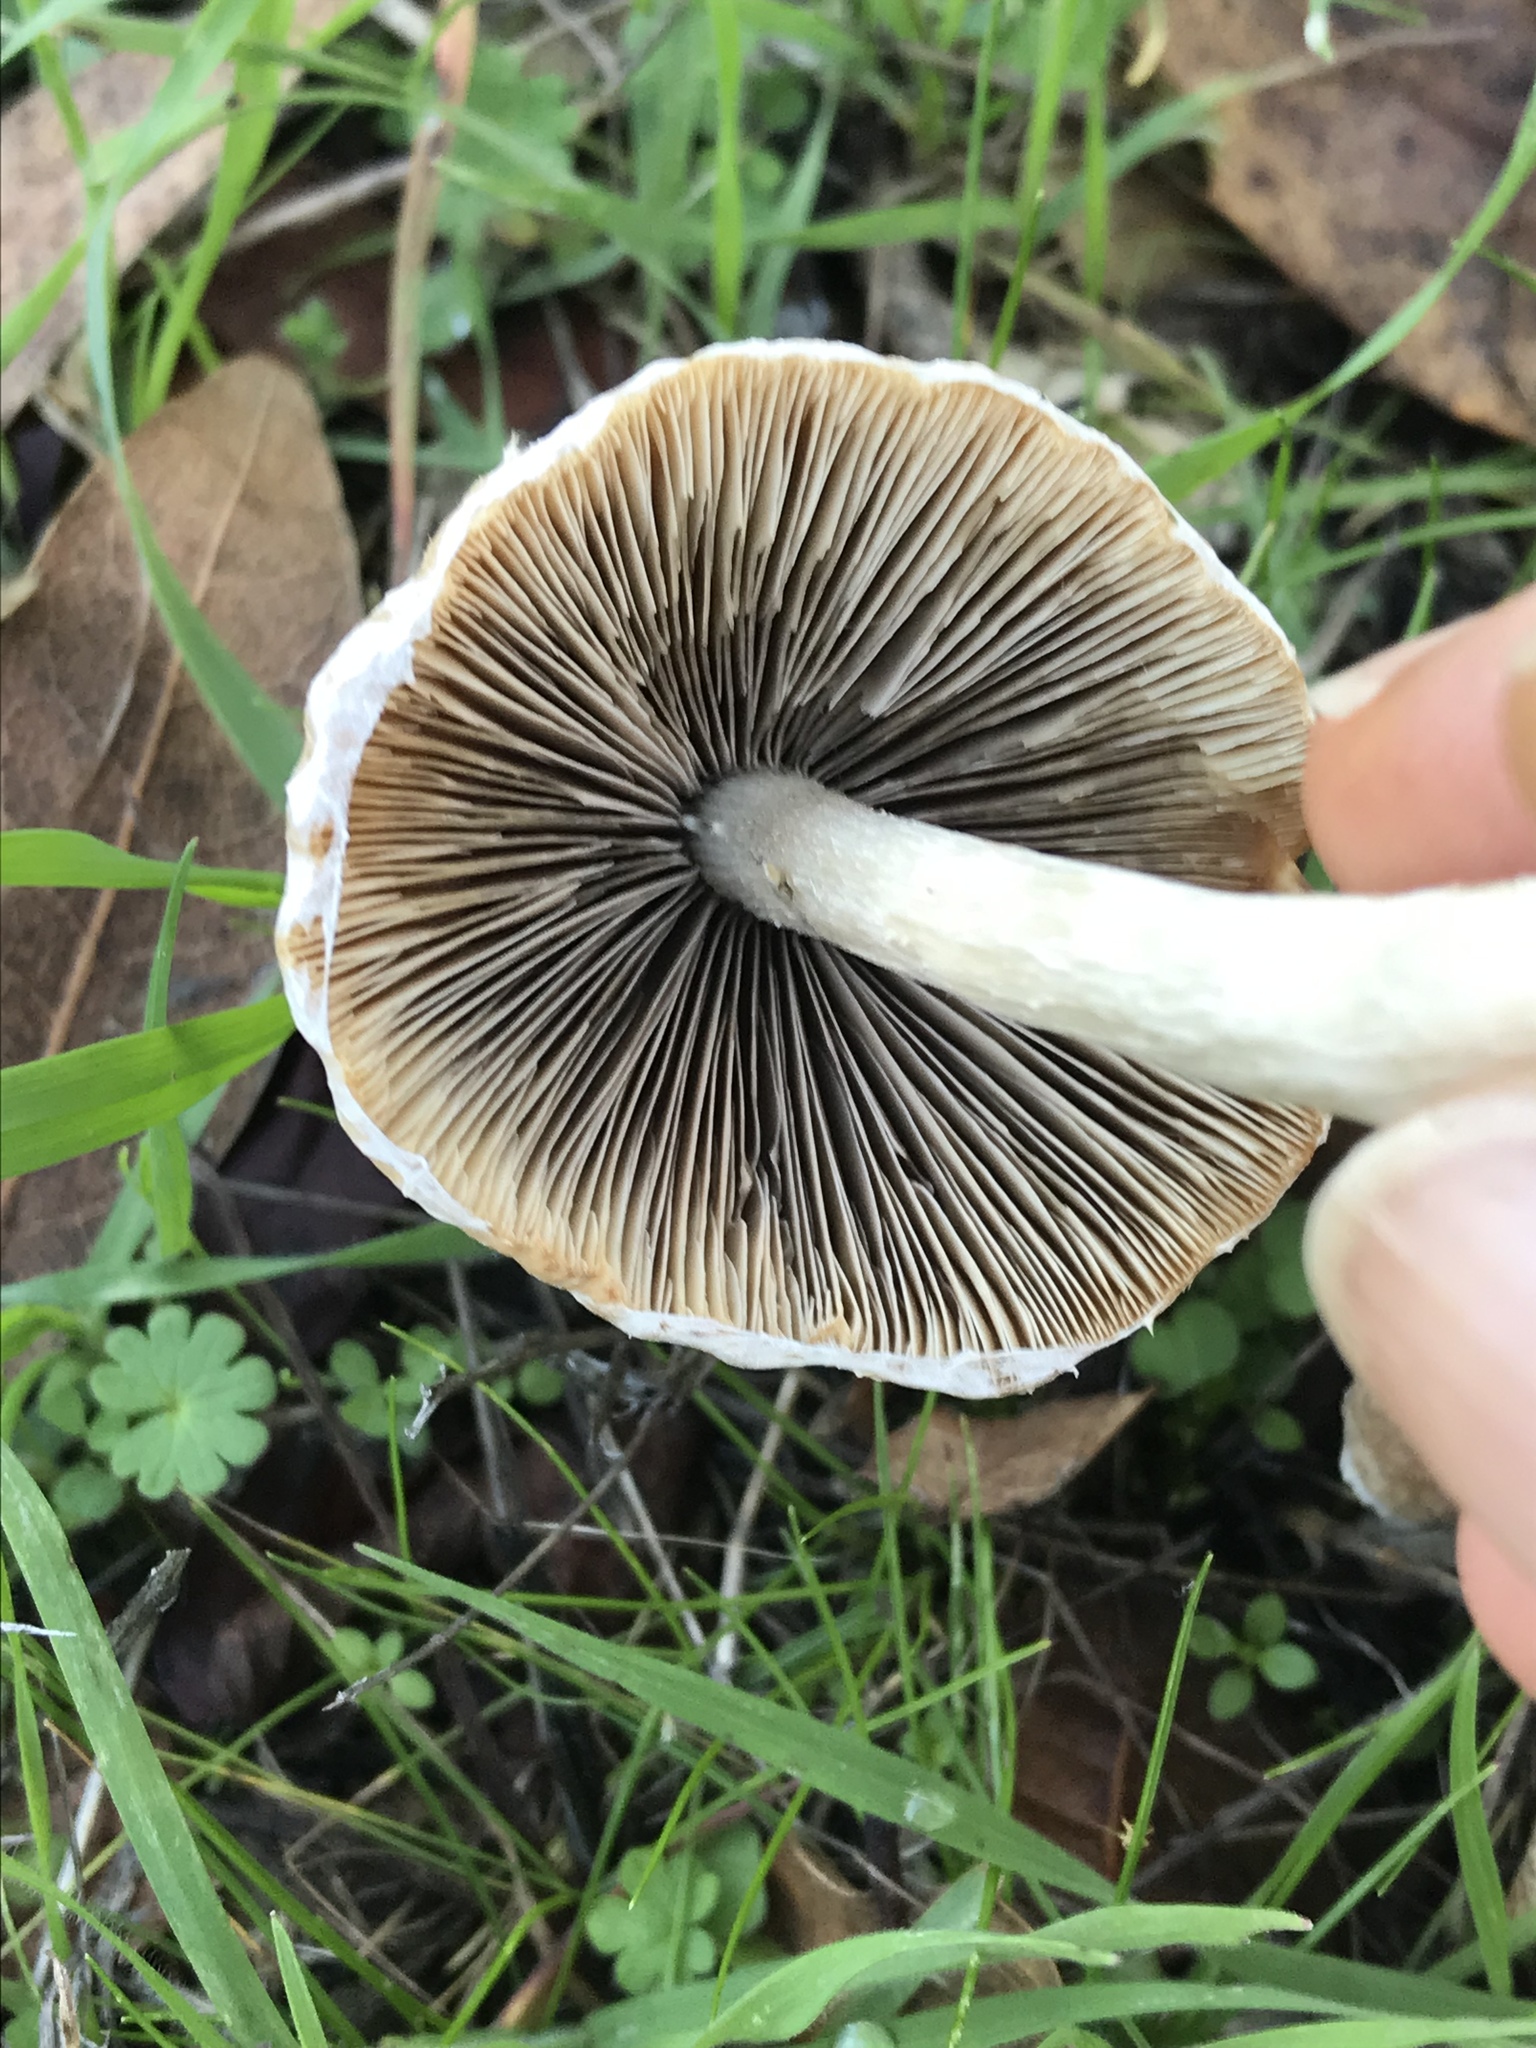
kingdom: Fungi
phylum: Basidiomycota
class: Agaricomycetes
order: Agaricales
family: Psathyrellaceae
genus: Psathyrella
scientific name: Psathyrella longipes
